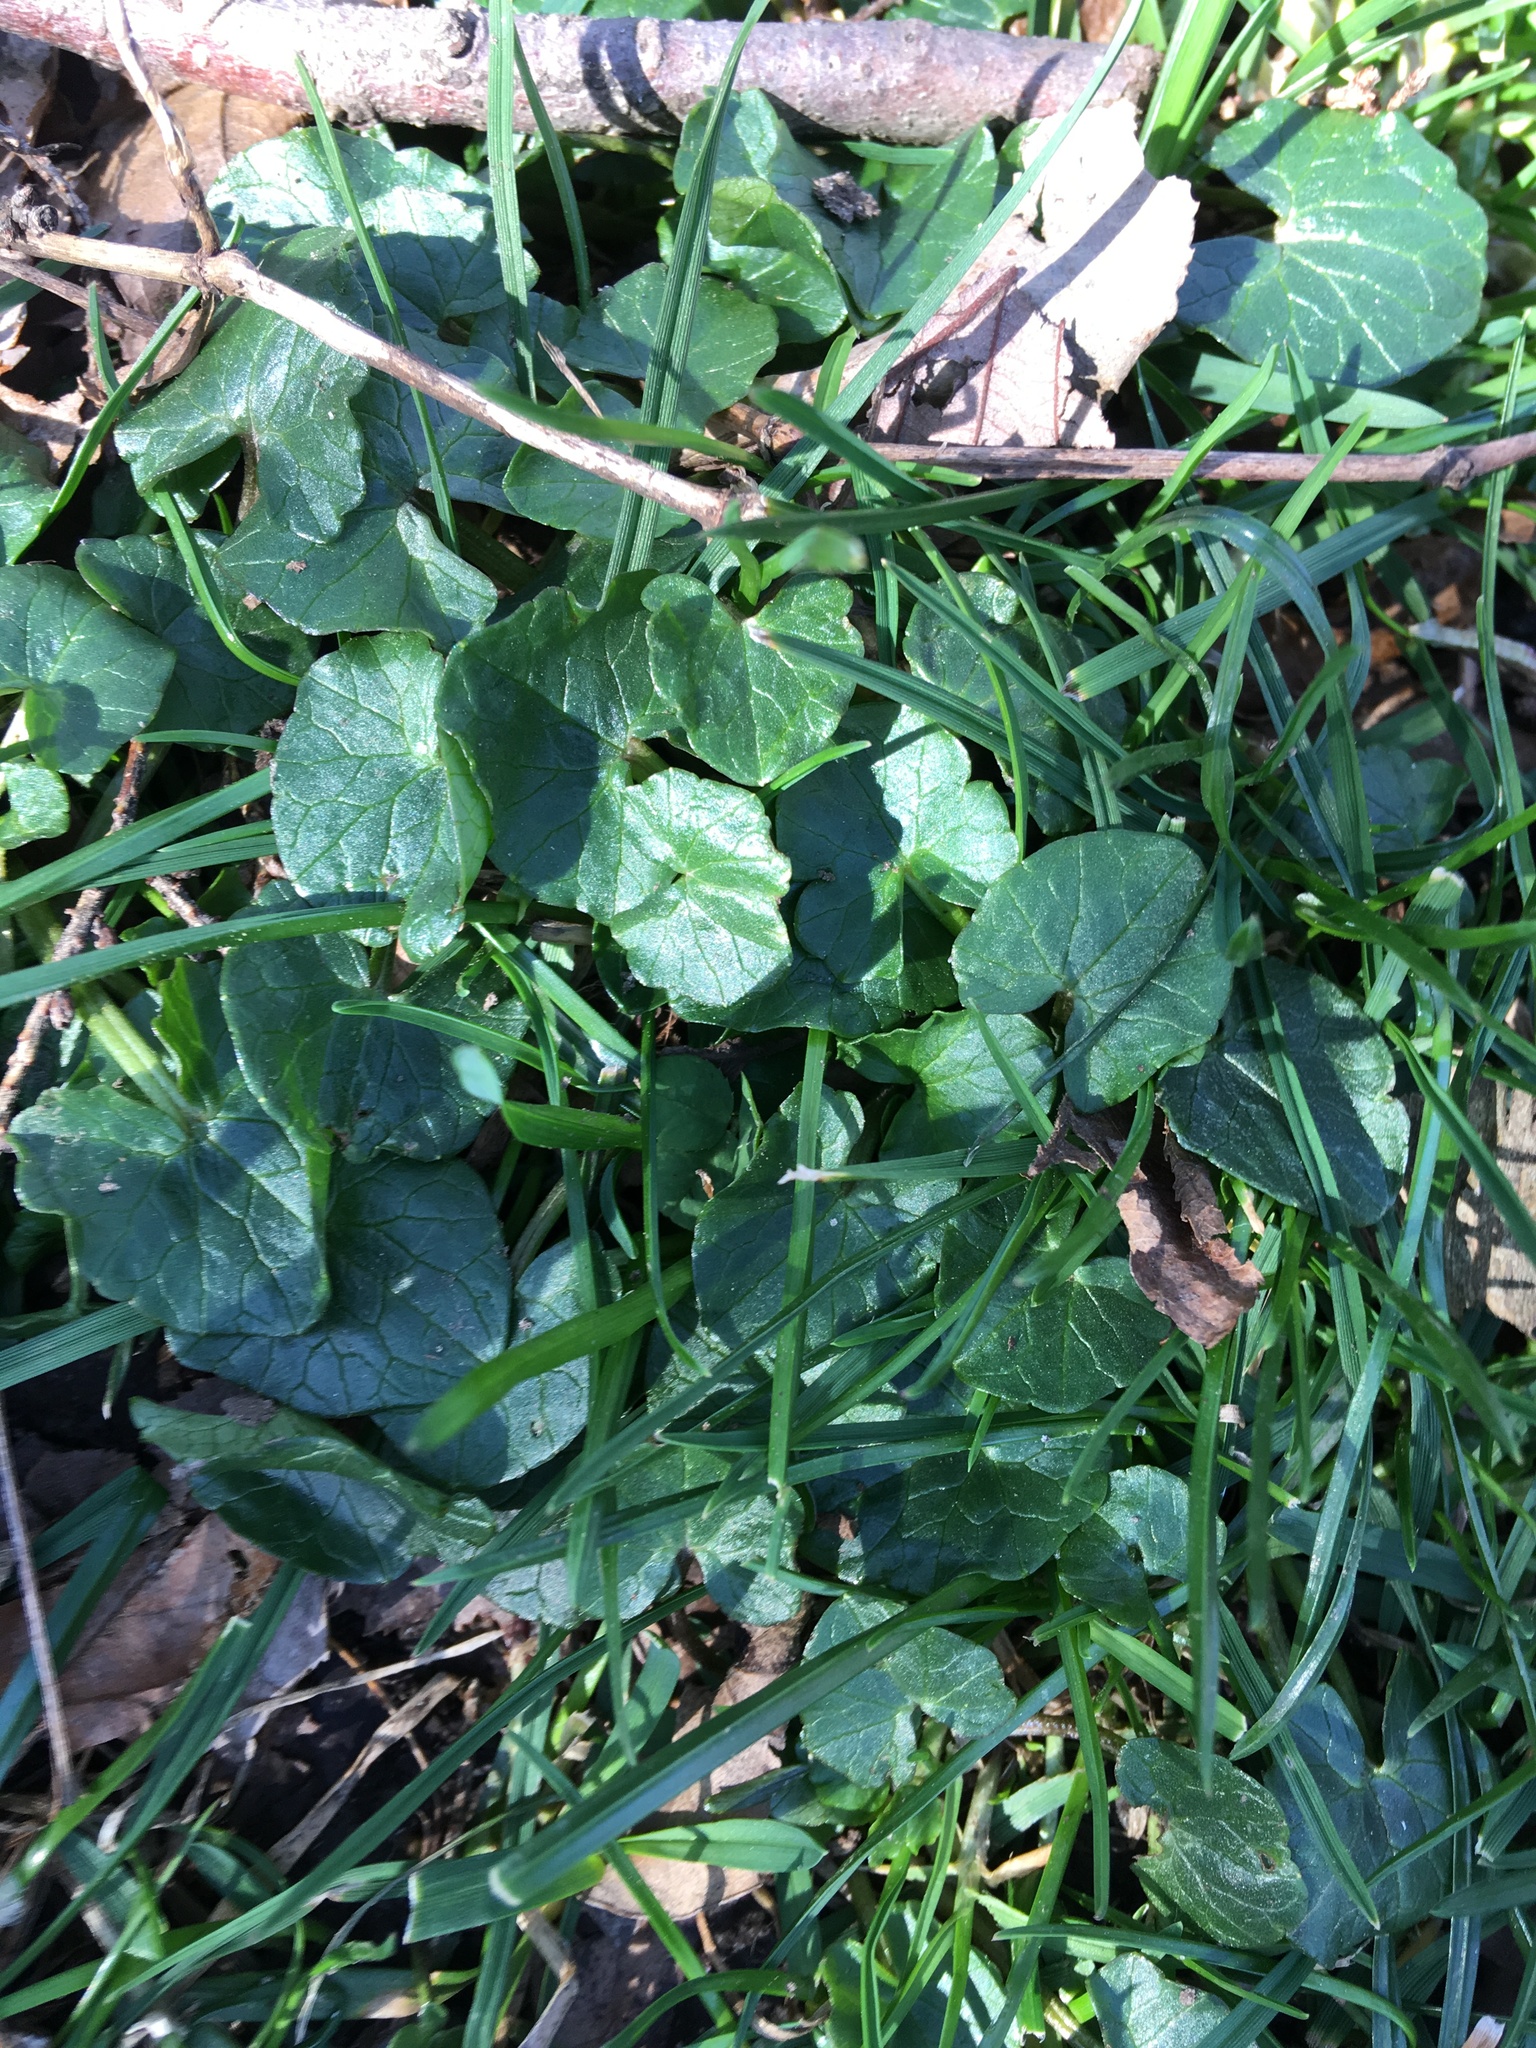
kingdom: Plantae
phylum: Tracheophyta
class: Magnoliopsida
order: Ranunculales
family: Ranunculaceae
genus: Ficaria
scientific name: Ficaria verna
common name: Lesser celandine
